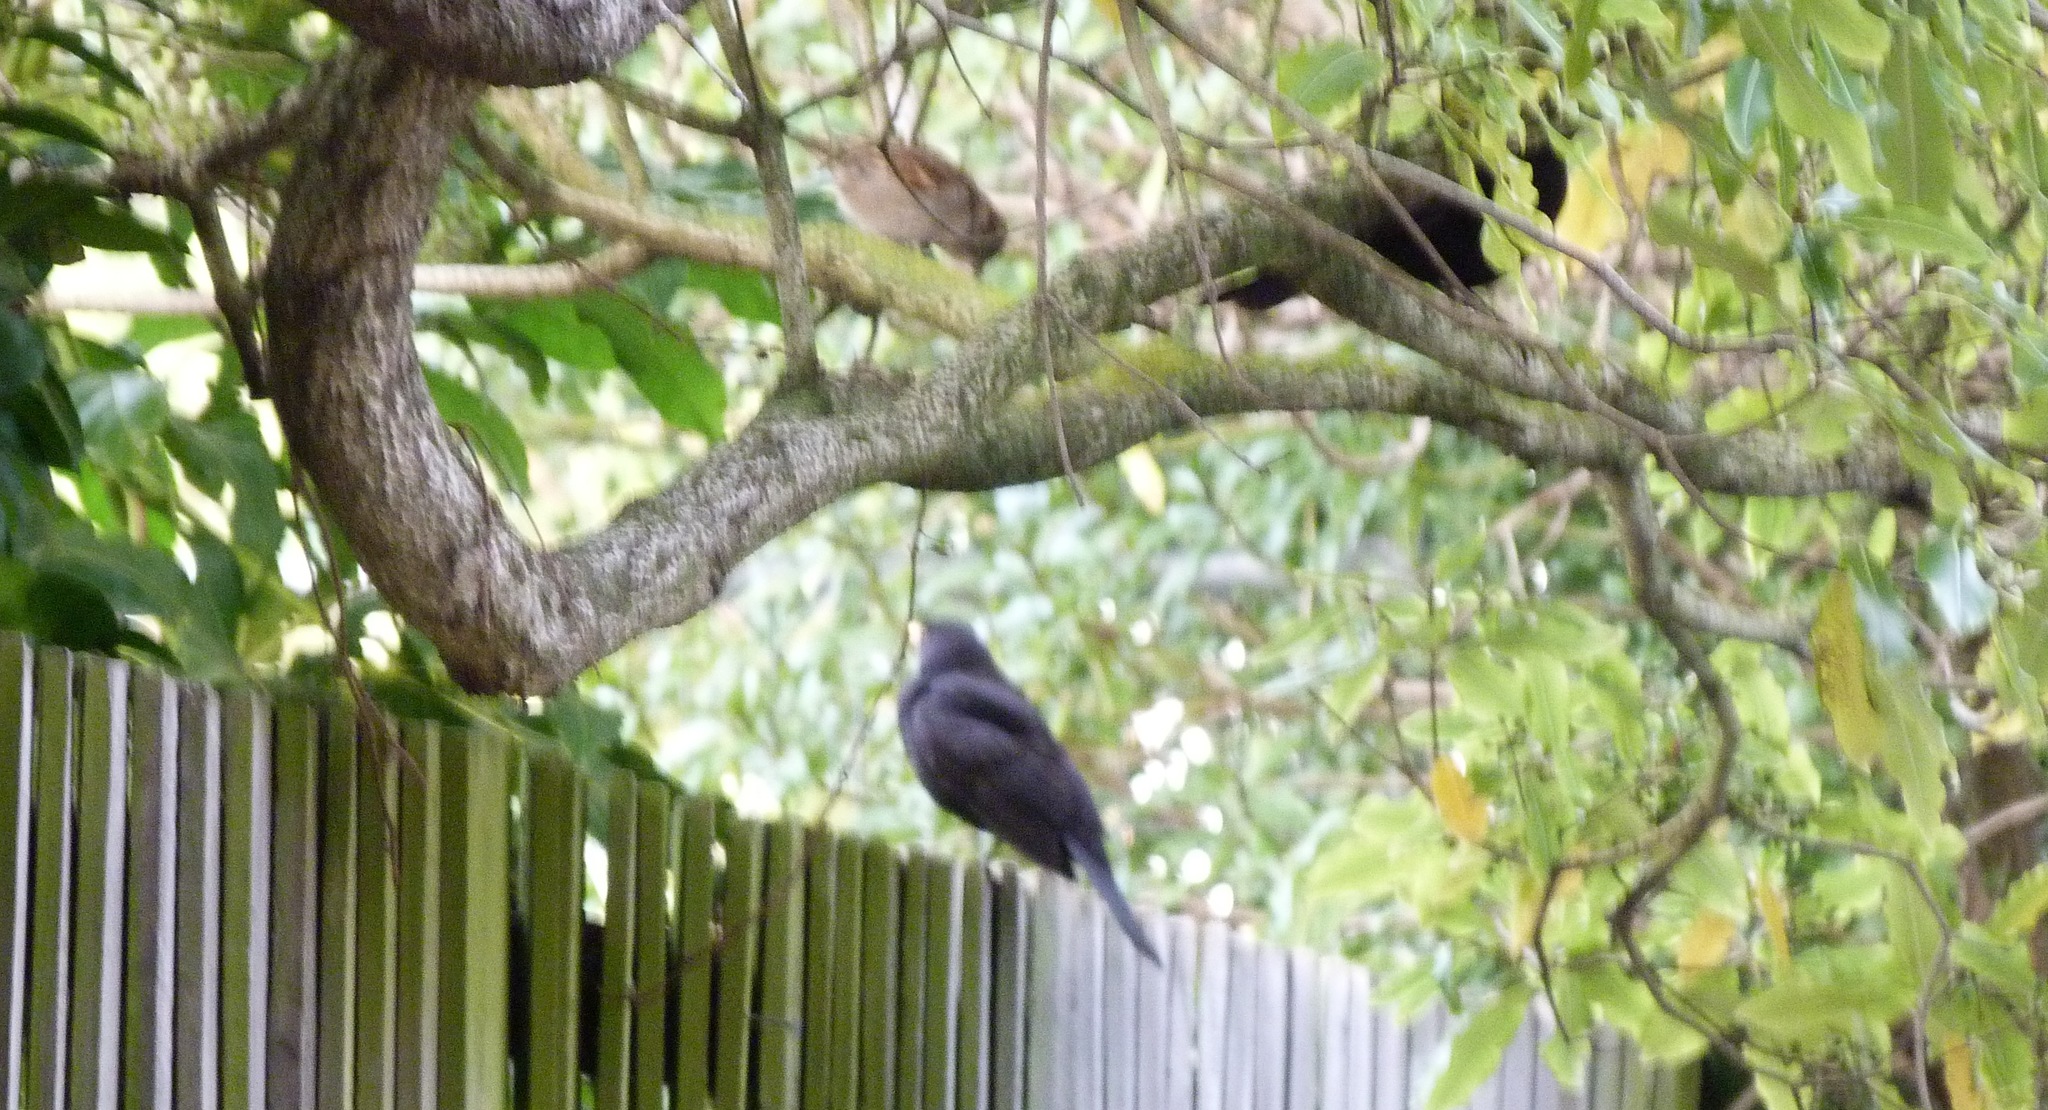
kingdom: Animalia
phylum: Chordata
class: Aves
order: Passeriformes
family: Passeridae
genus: Passer
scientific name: Passer domesticus
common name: House sparrow
